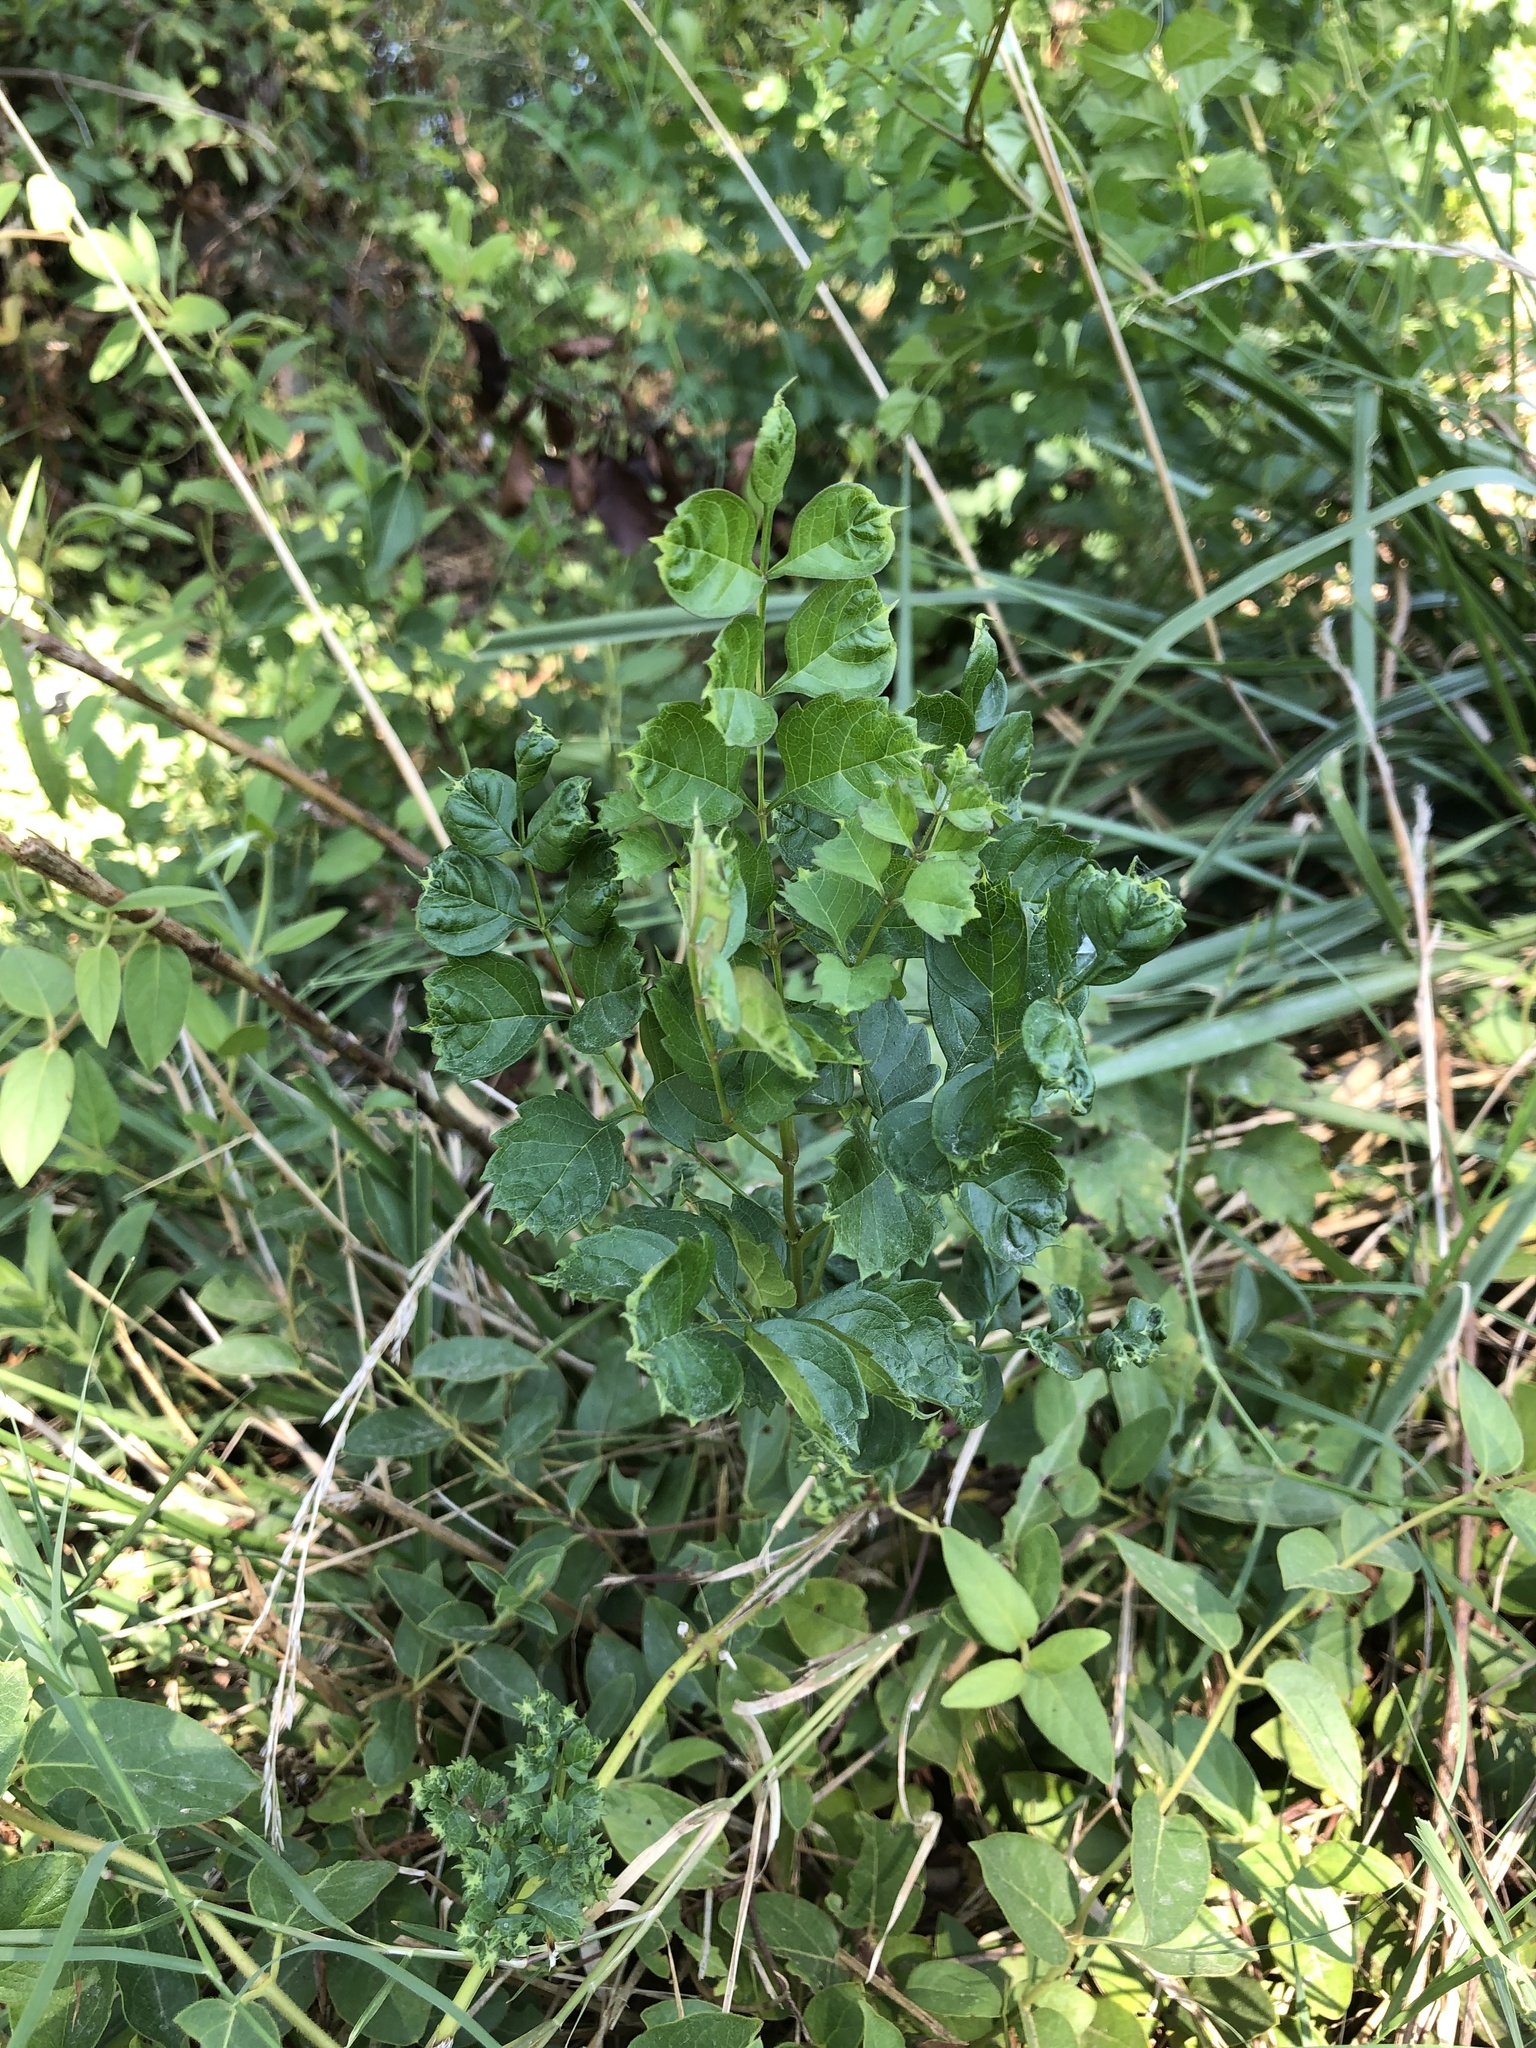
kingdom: Plantae
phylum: Tracheophyta
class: Magnoliopsida
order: Lamiales
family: Bignoniaceae
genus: Campsis
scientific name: Campsis radicans
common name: Trumpet-creeper
